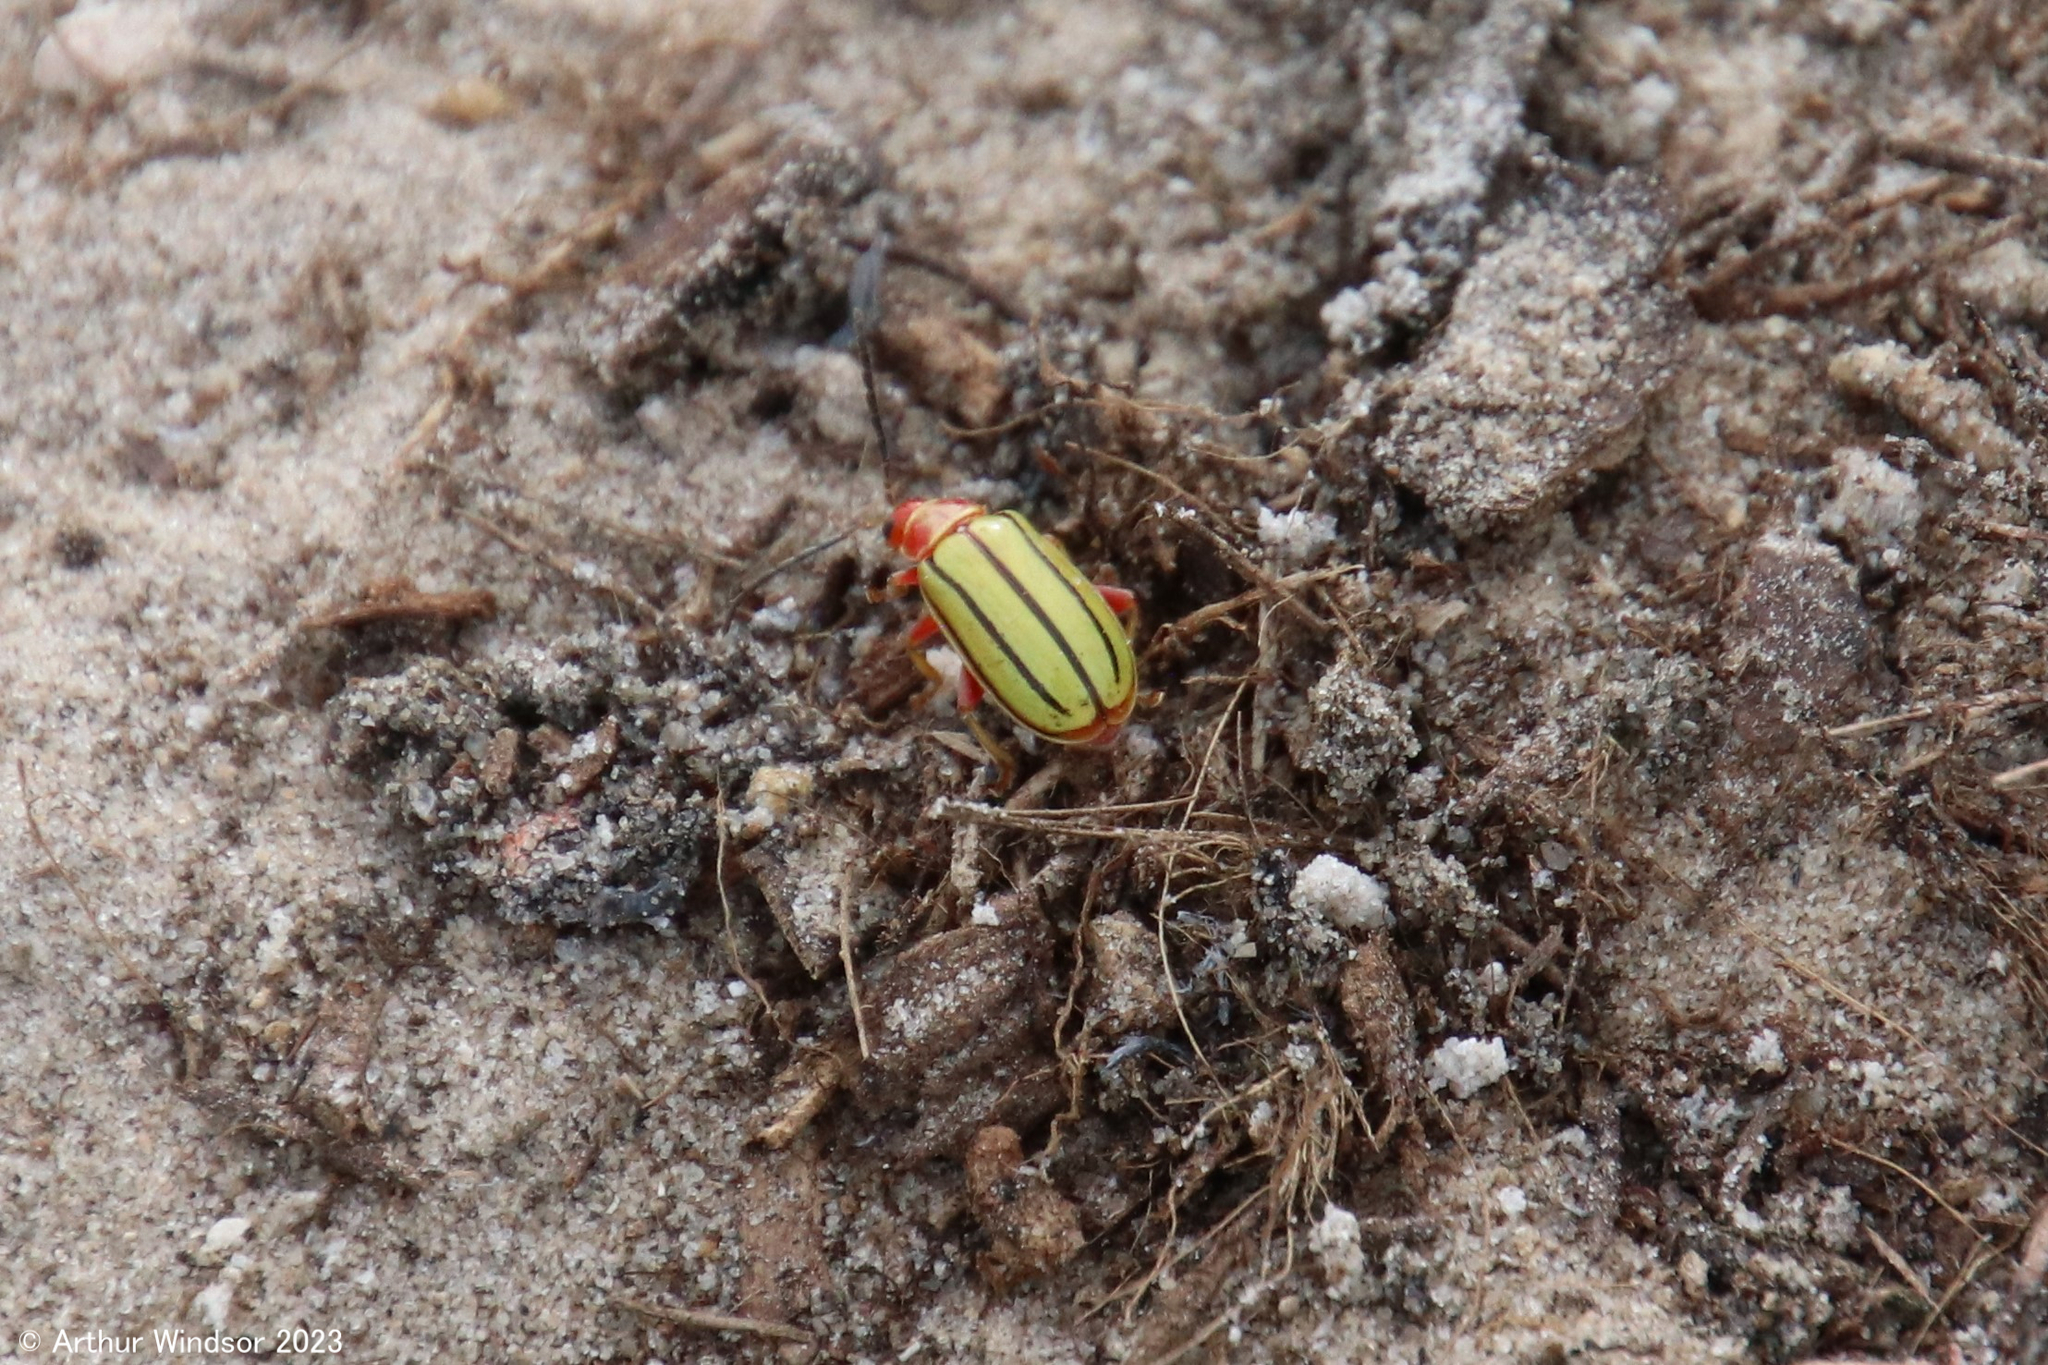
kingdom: Animalia
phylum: Arthropoda
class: Insecta
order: Coleoptera
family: Chrysomelidae
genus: Disonycha
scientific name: Disonycha
